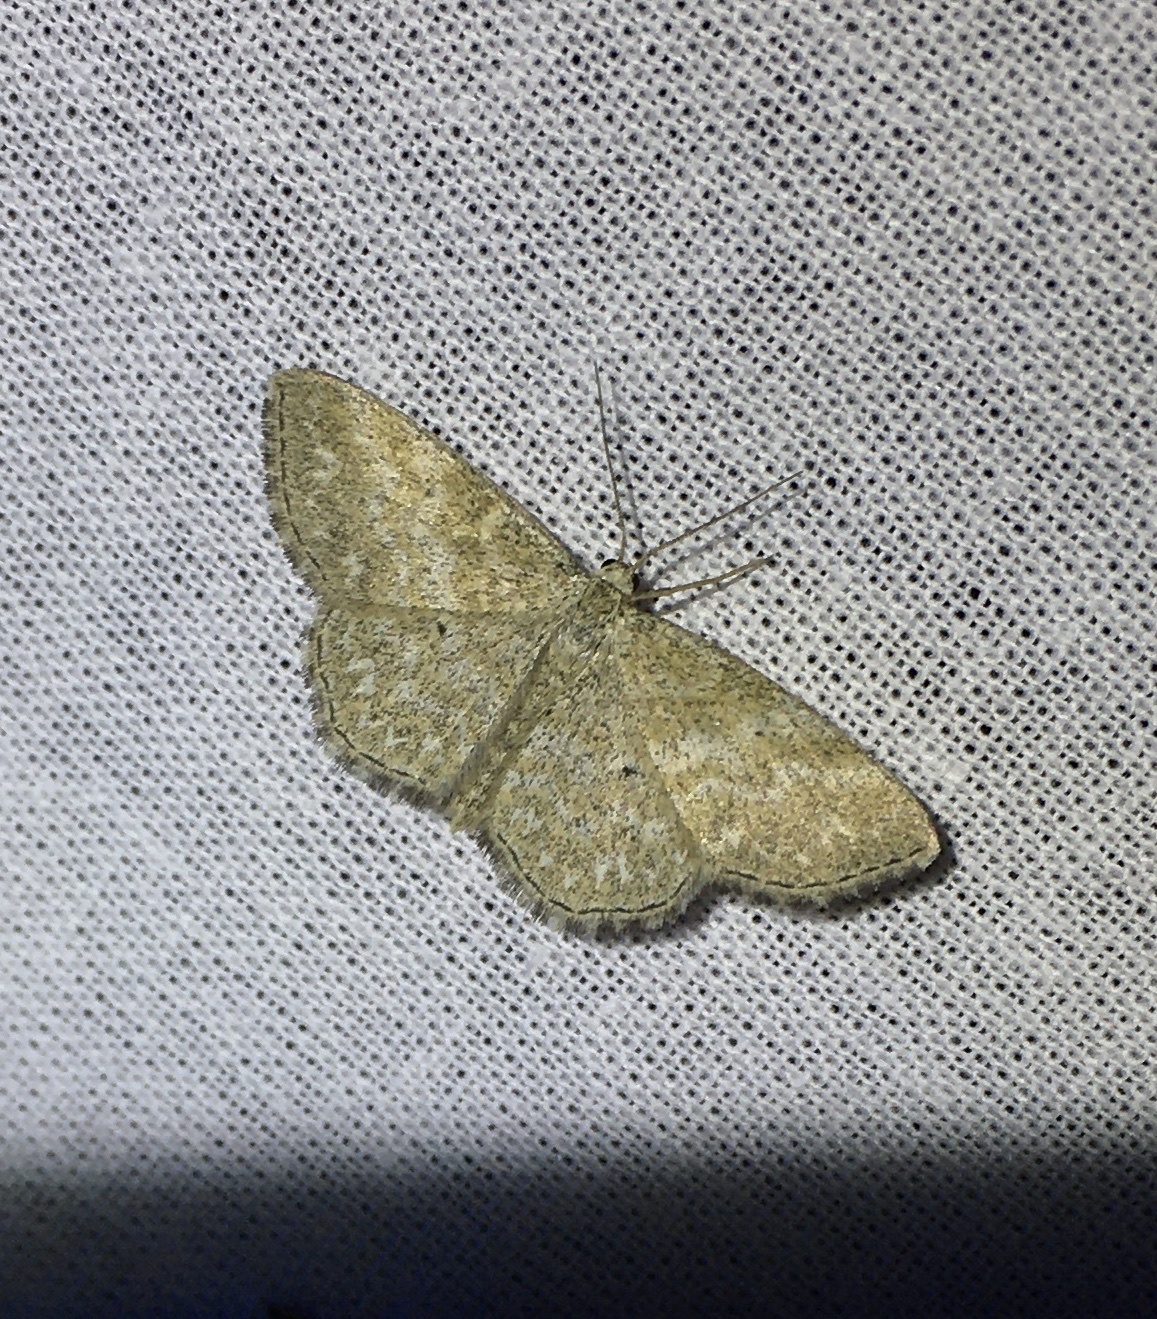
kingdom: Animalia
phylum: Arthropoda
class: Insecta
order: Lepidoptera
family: Geometridae
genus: Scopula
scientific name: Scopula immorata
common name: Lewes wave
